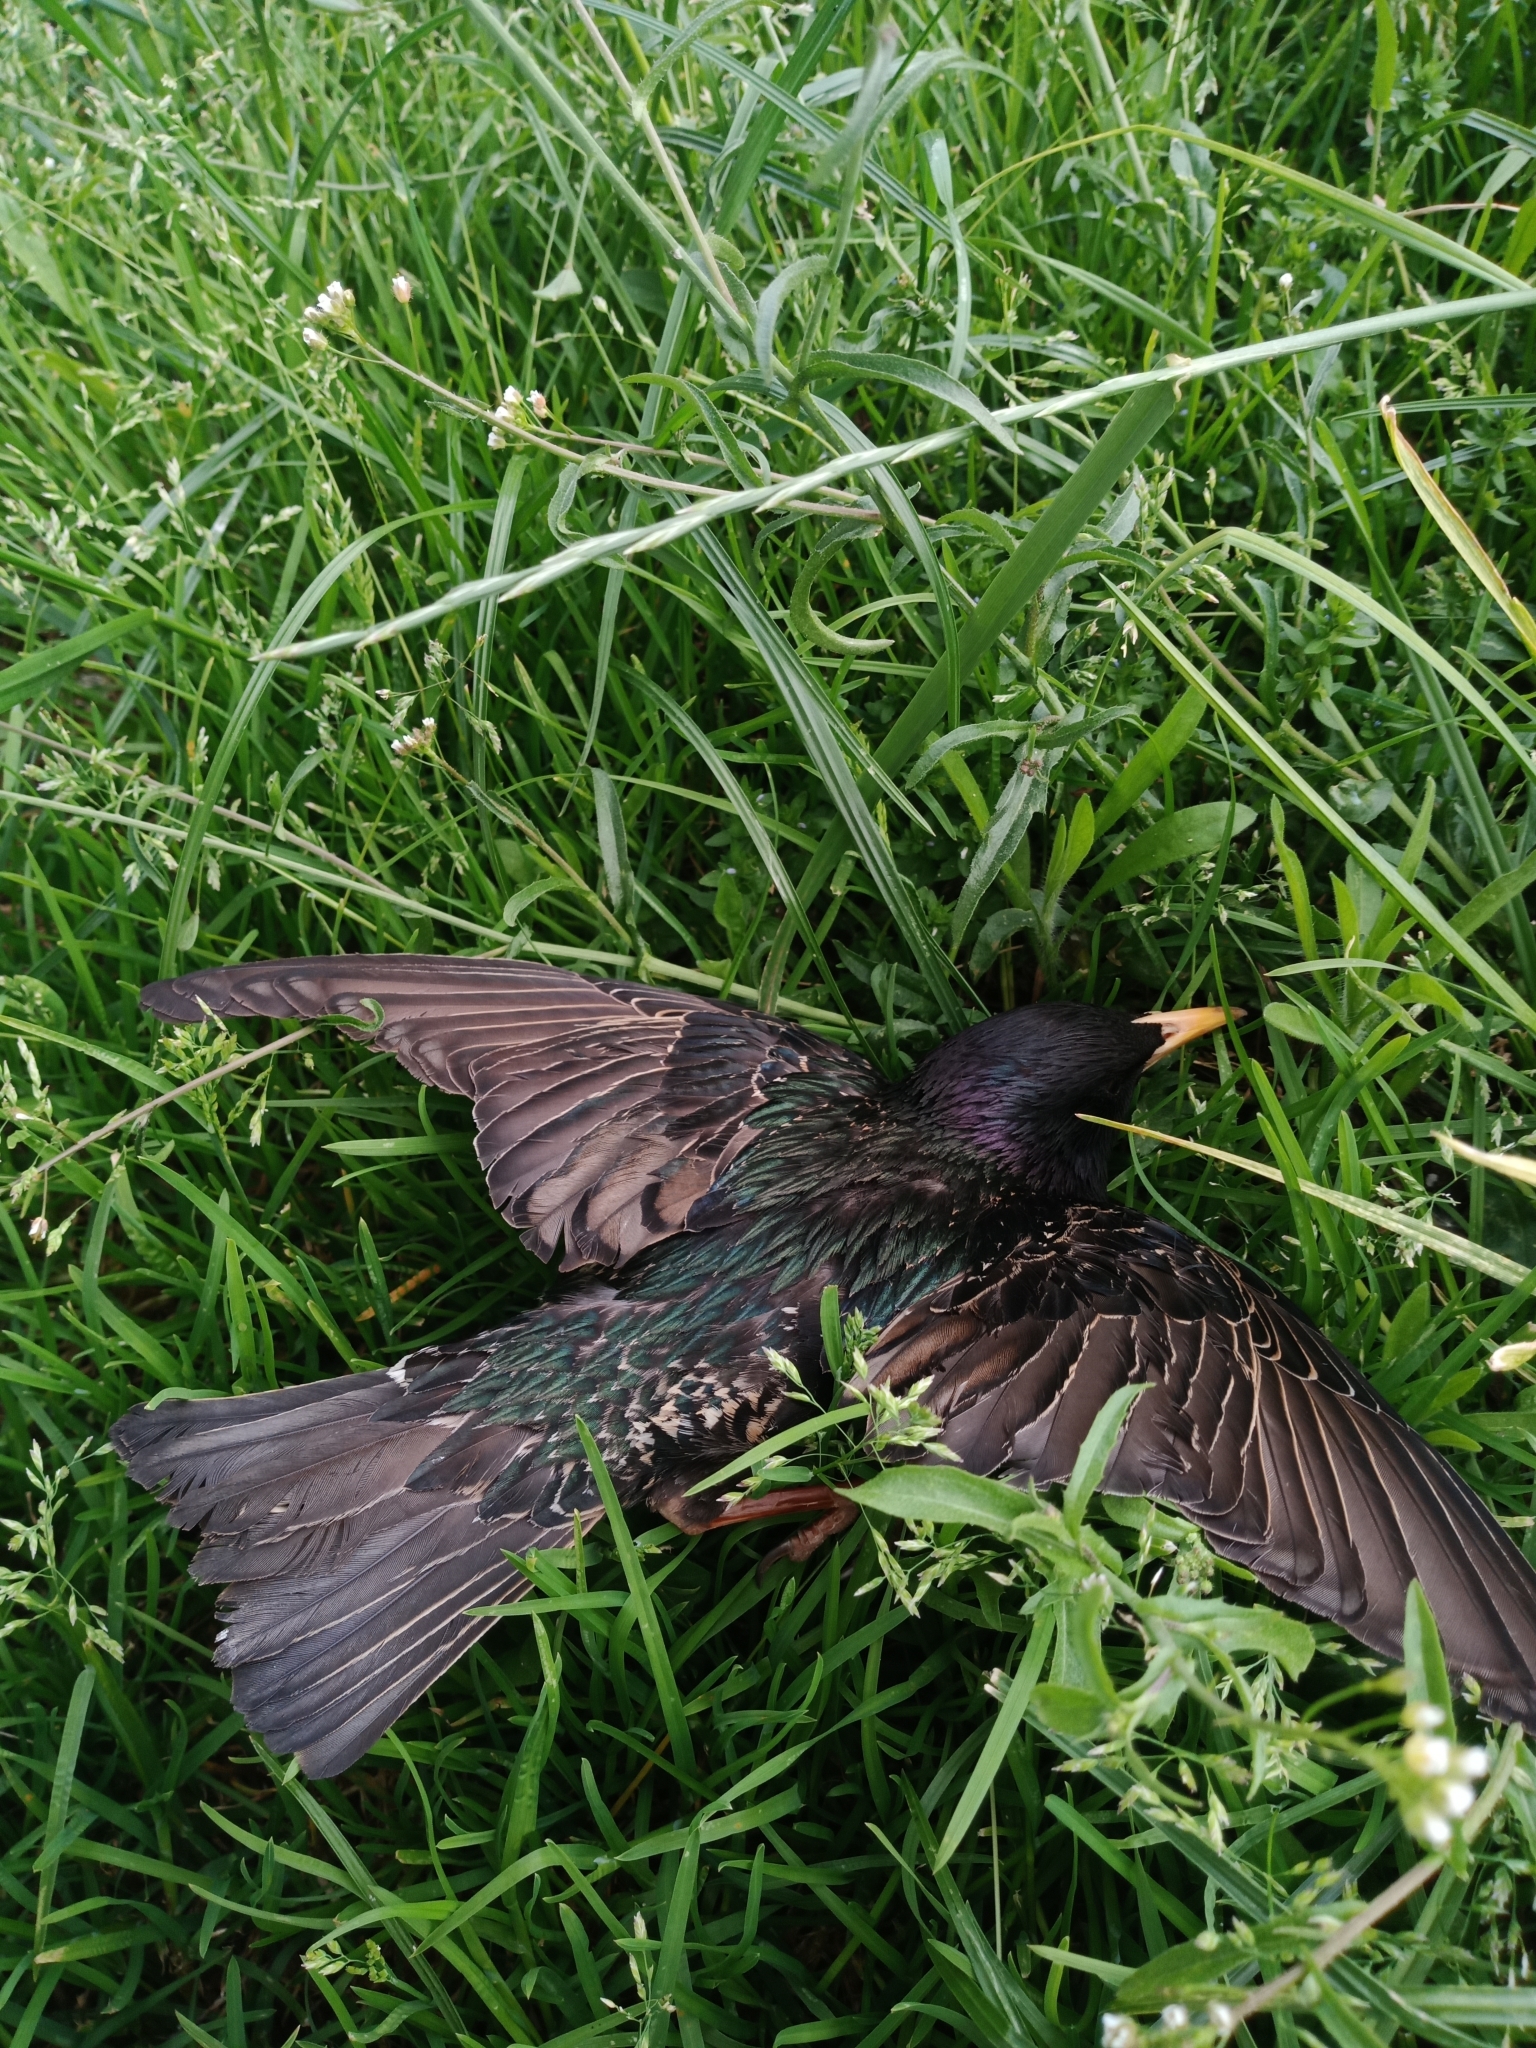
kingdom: Animalia
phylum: Chordata
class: Aves
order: Passeriformes
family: Sturnidae
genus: Sturnus
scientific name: Sturnus vulgaris
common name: Common starling
